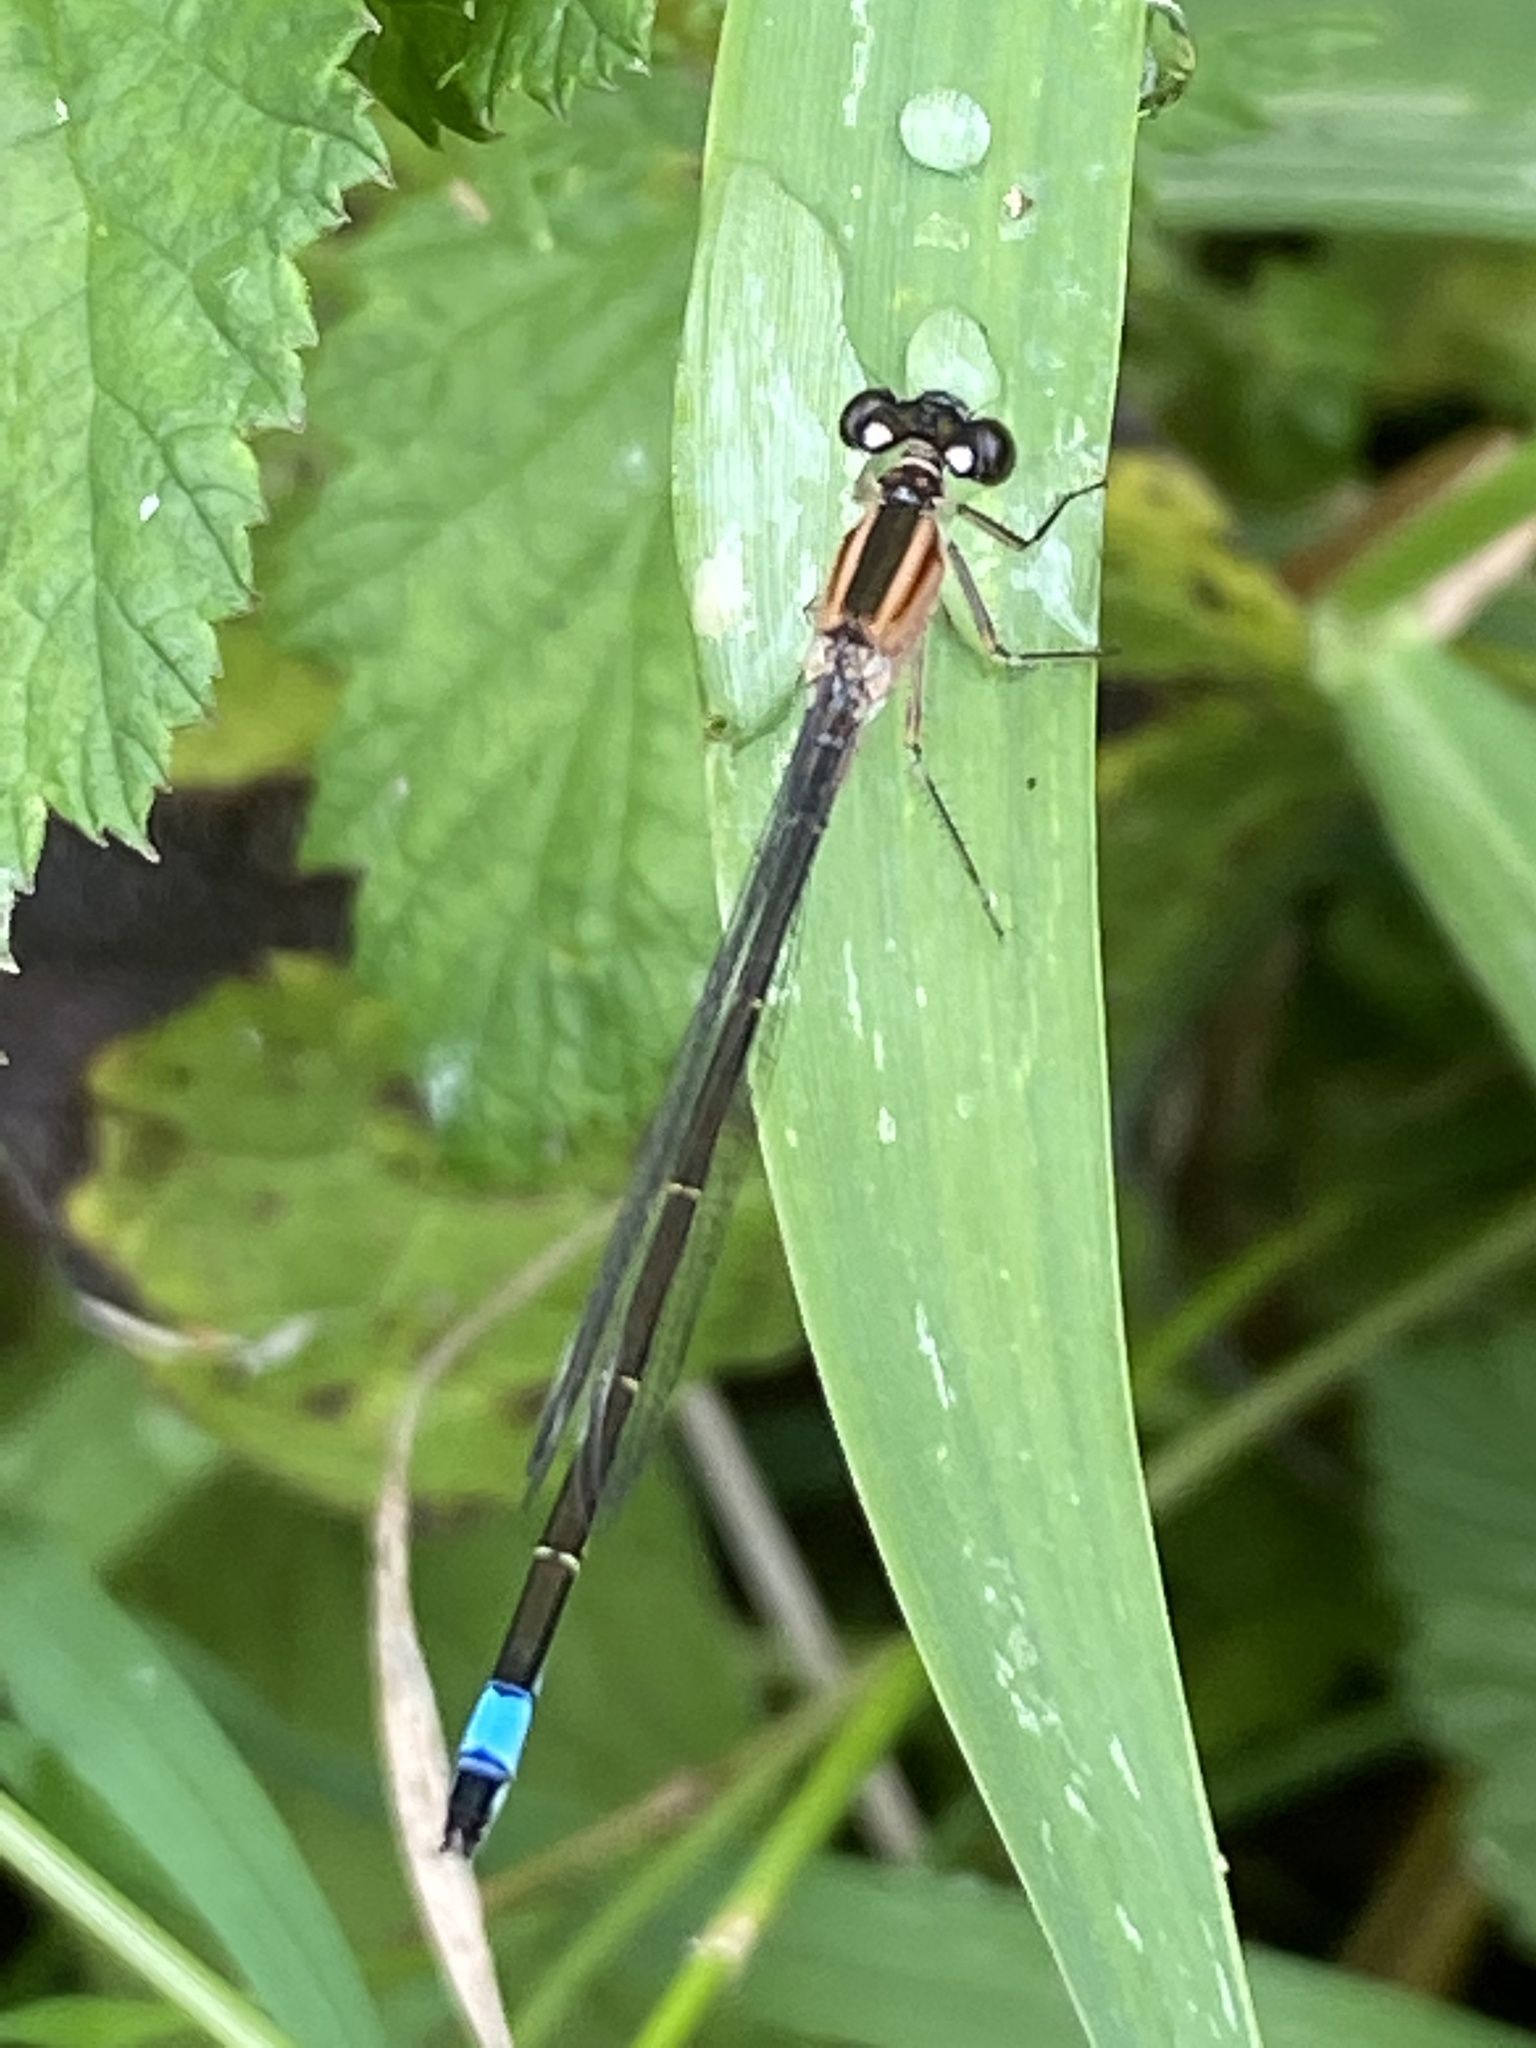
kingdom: Animalia
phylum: Arthropoda
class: Insecta
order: Odonata
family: Coenagrionidae
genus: Ischnura
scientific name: Ischnura elegans
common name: Blue-tailed damselfly
